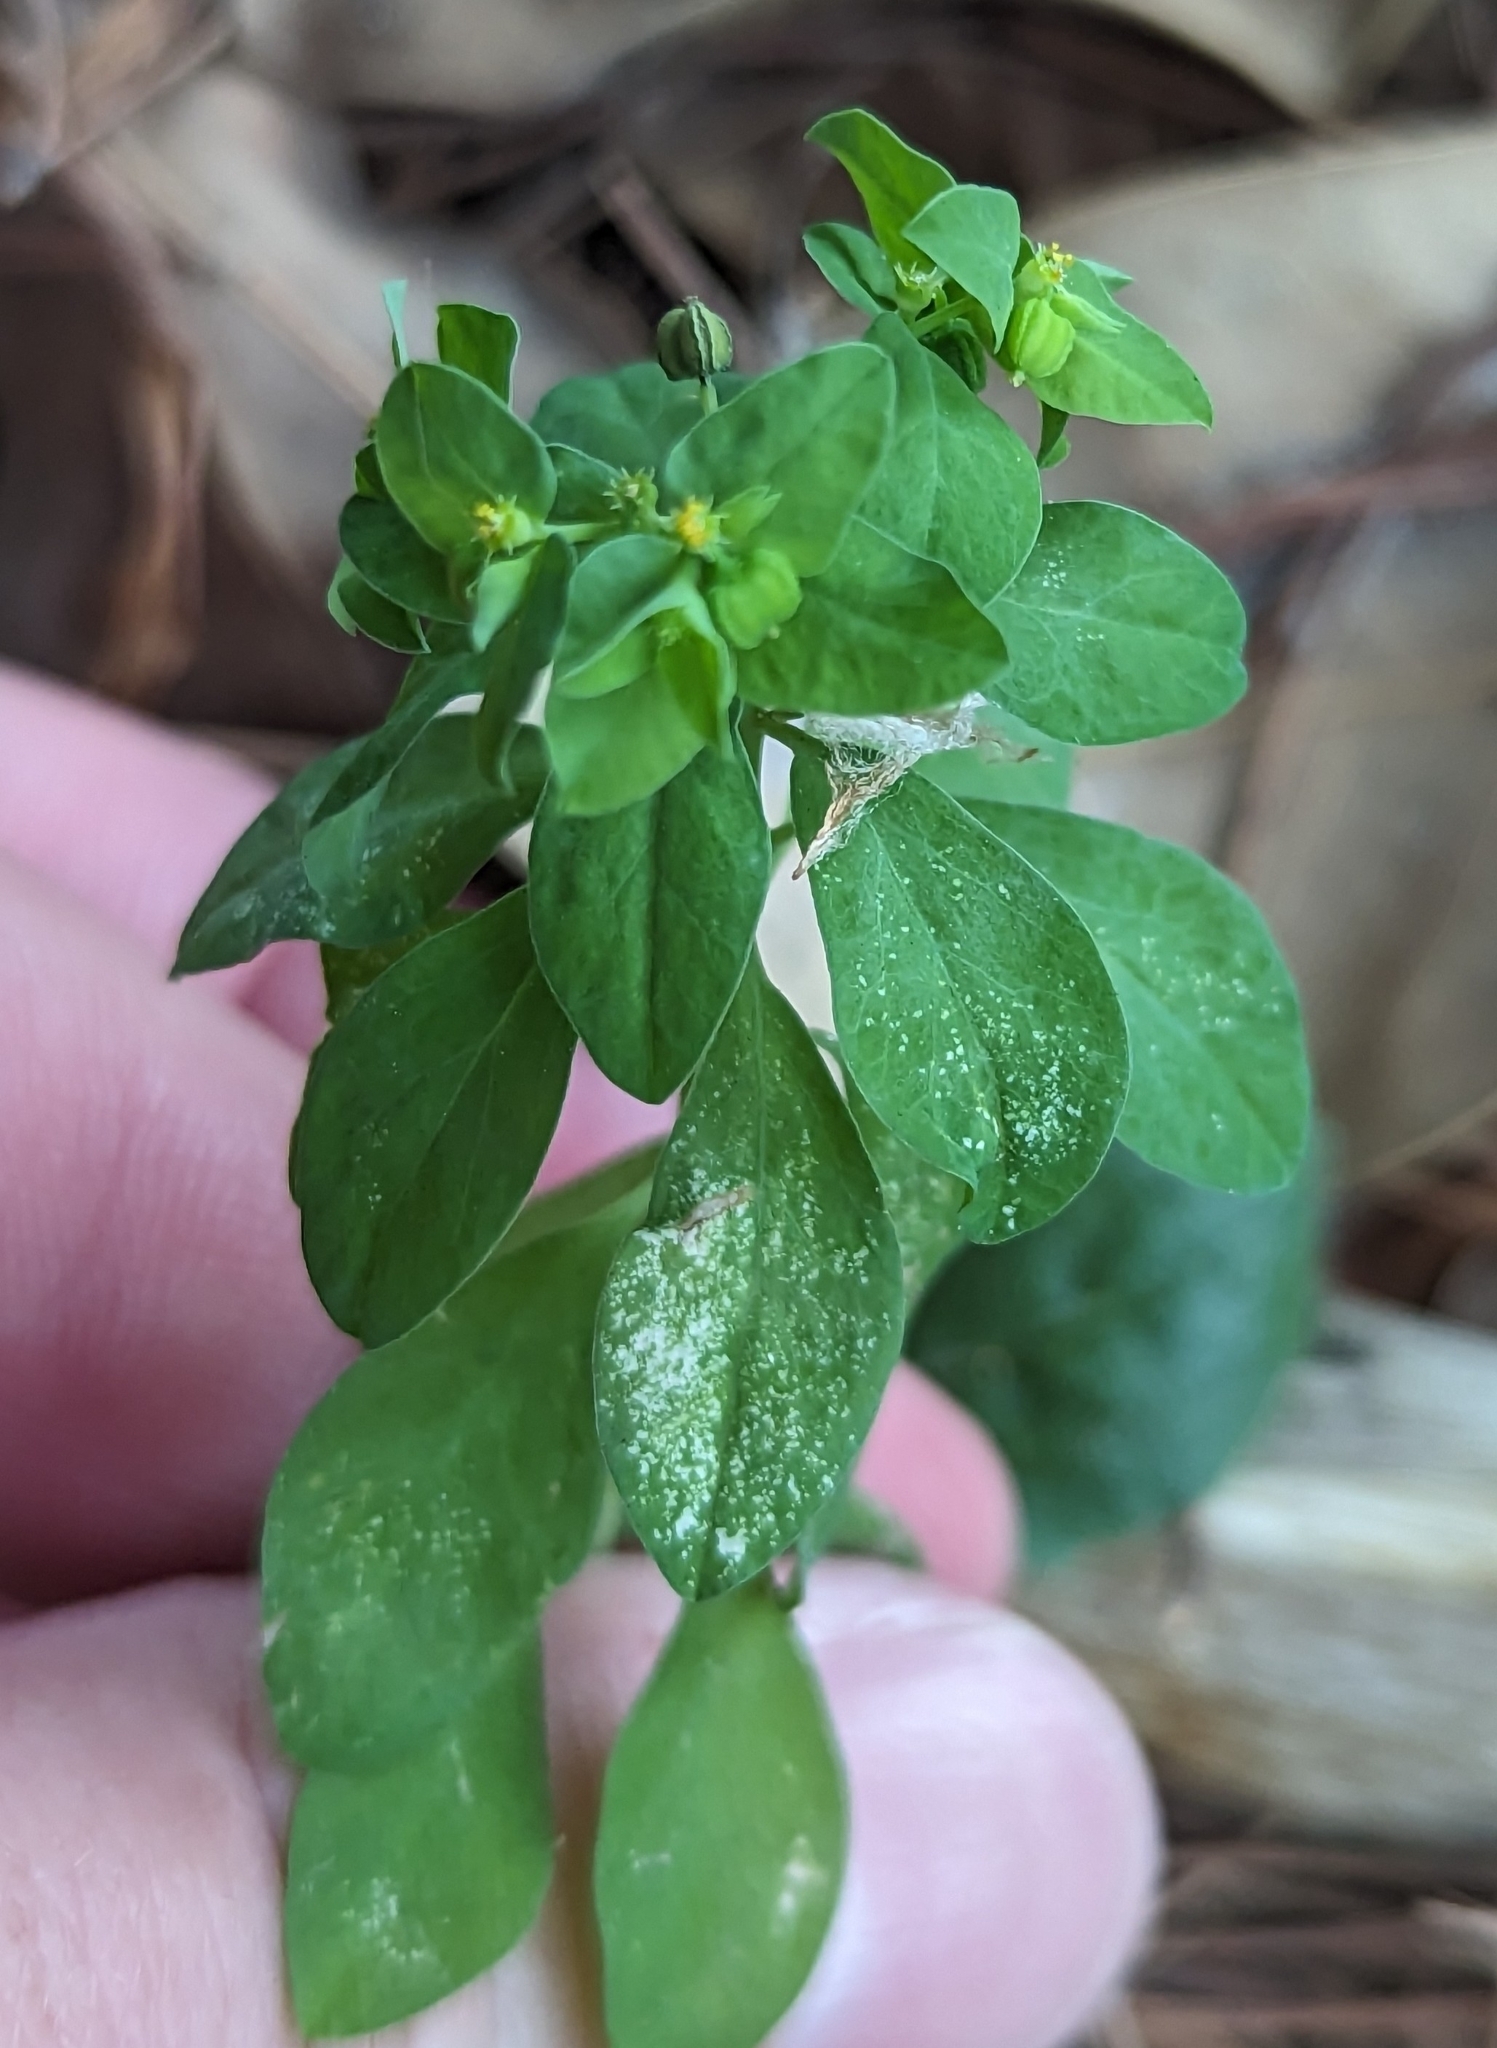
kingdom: Plantae
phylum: Tracheophyta
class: Magnoliopsida
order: Malpighiales
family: Euphorbiaceae
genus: Euphorbia
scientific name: Euphorbia peplus
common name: Petty spurge
